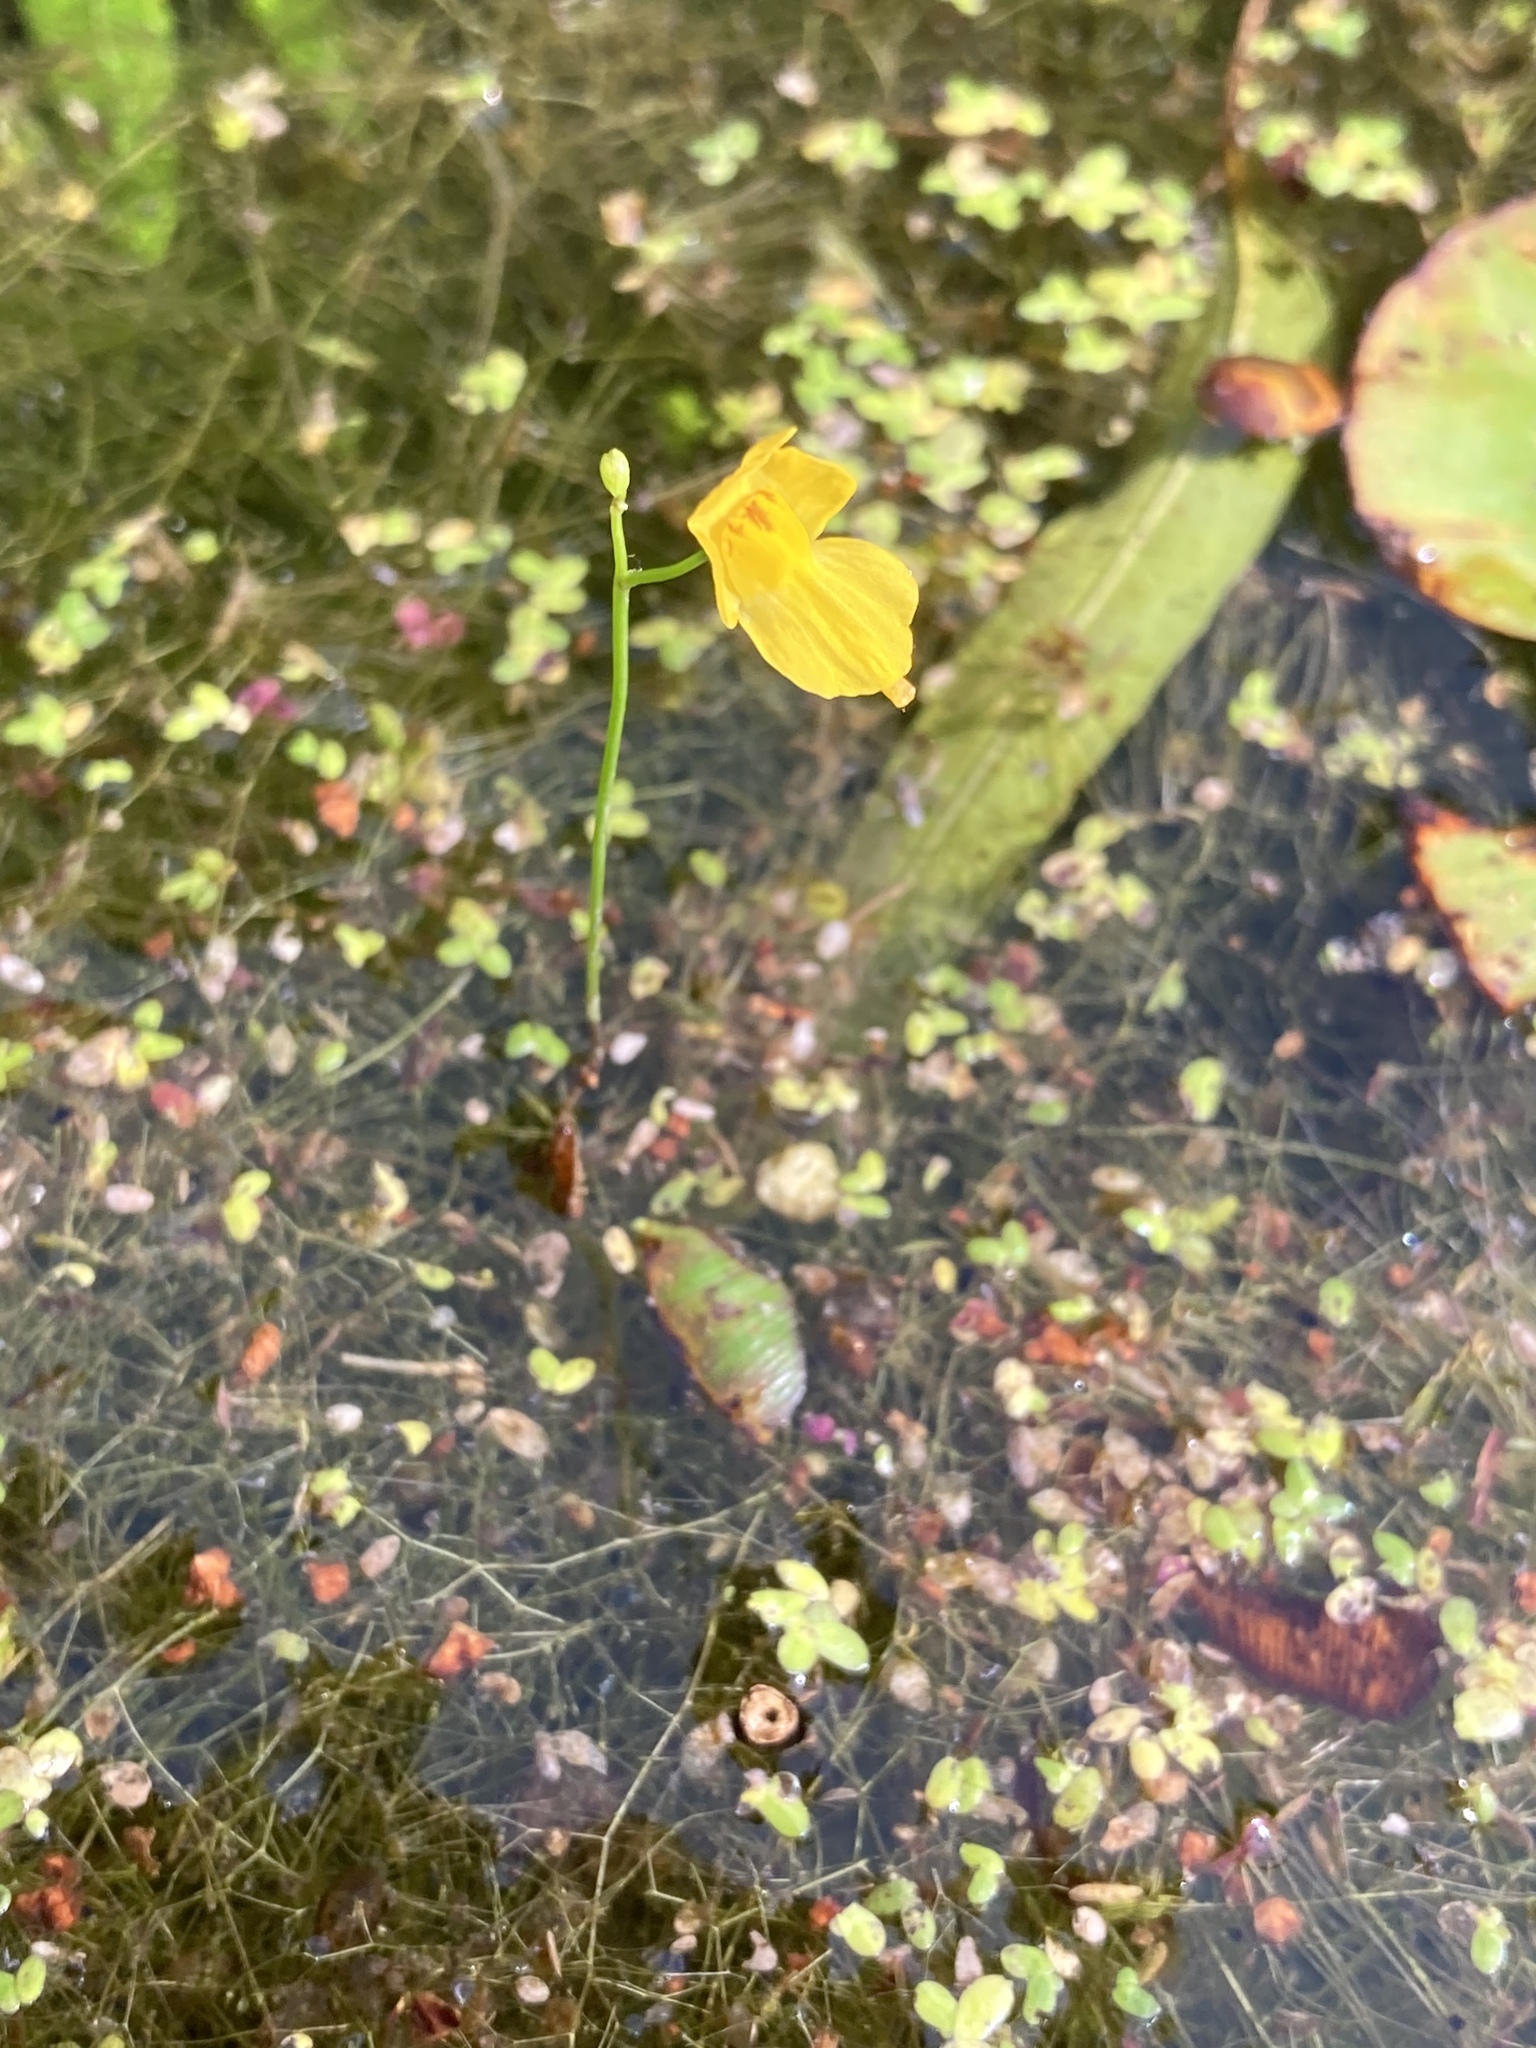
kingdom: Plantae
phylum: Tracheophyta
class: Magnoliopsida
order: Lamiales
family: Lentibulariaceae
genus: Utricularia
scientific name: Utricularia gibba
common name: Humped bladderwort
